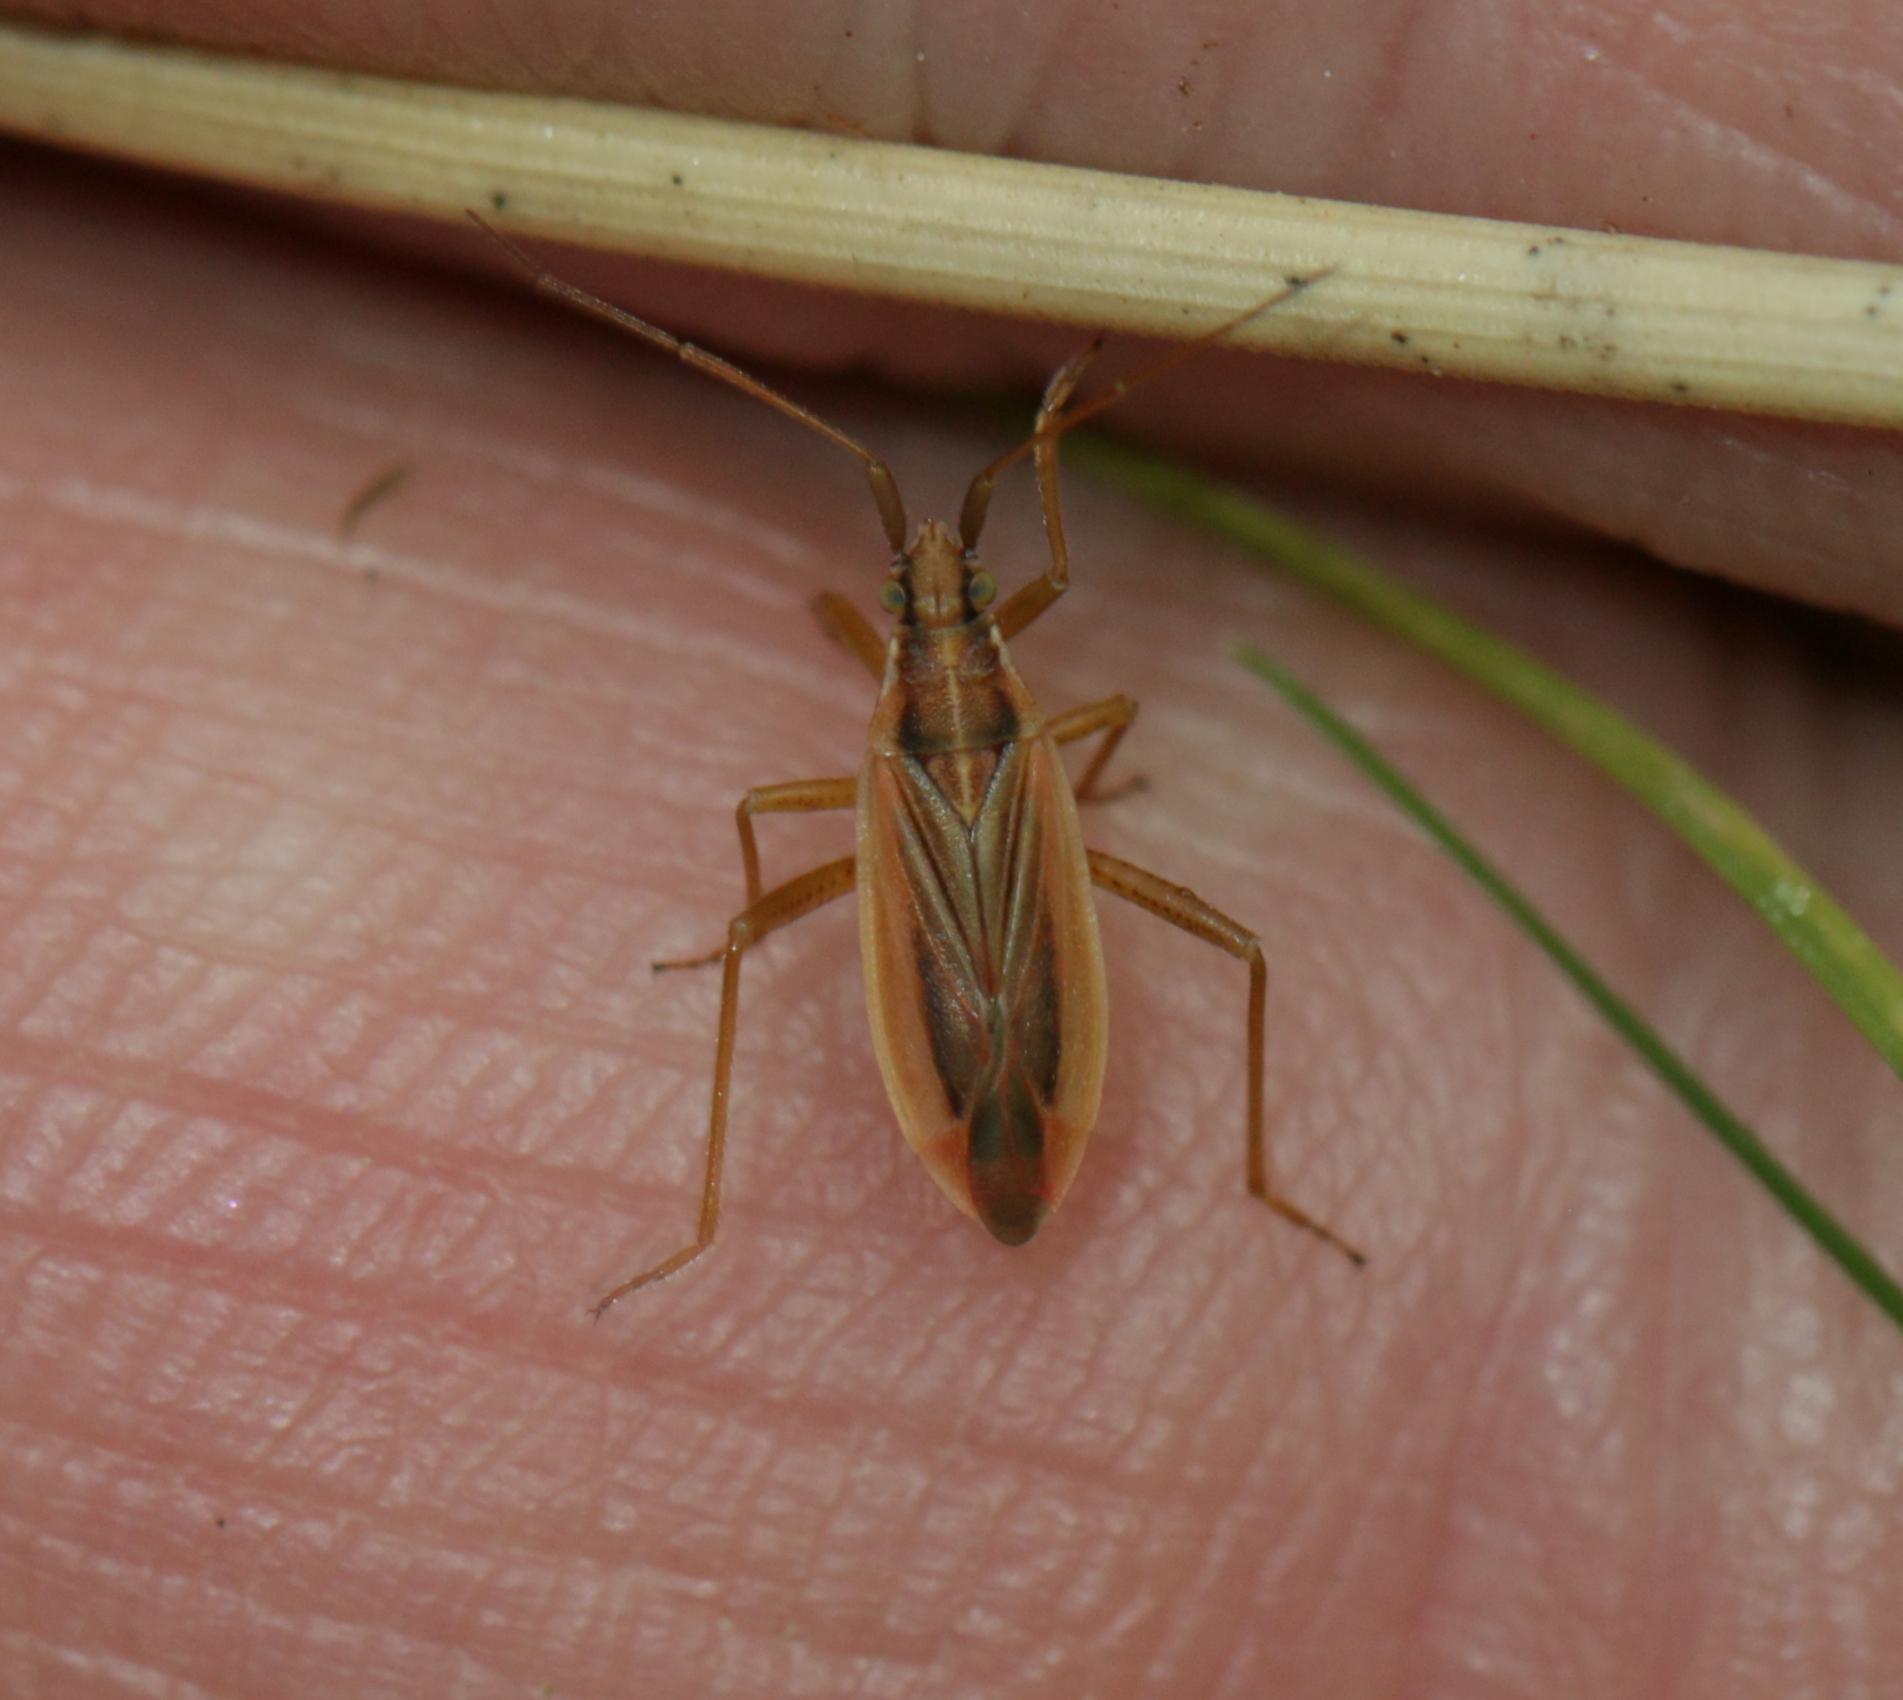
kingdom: Animalia
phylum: Arthropoda
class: Insecta
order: Hemiptera
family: Miridae
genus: Stenodema
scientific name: Stenodema holsata
